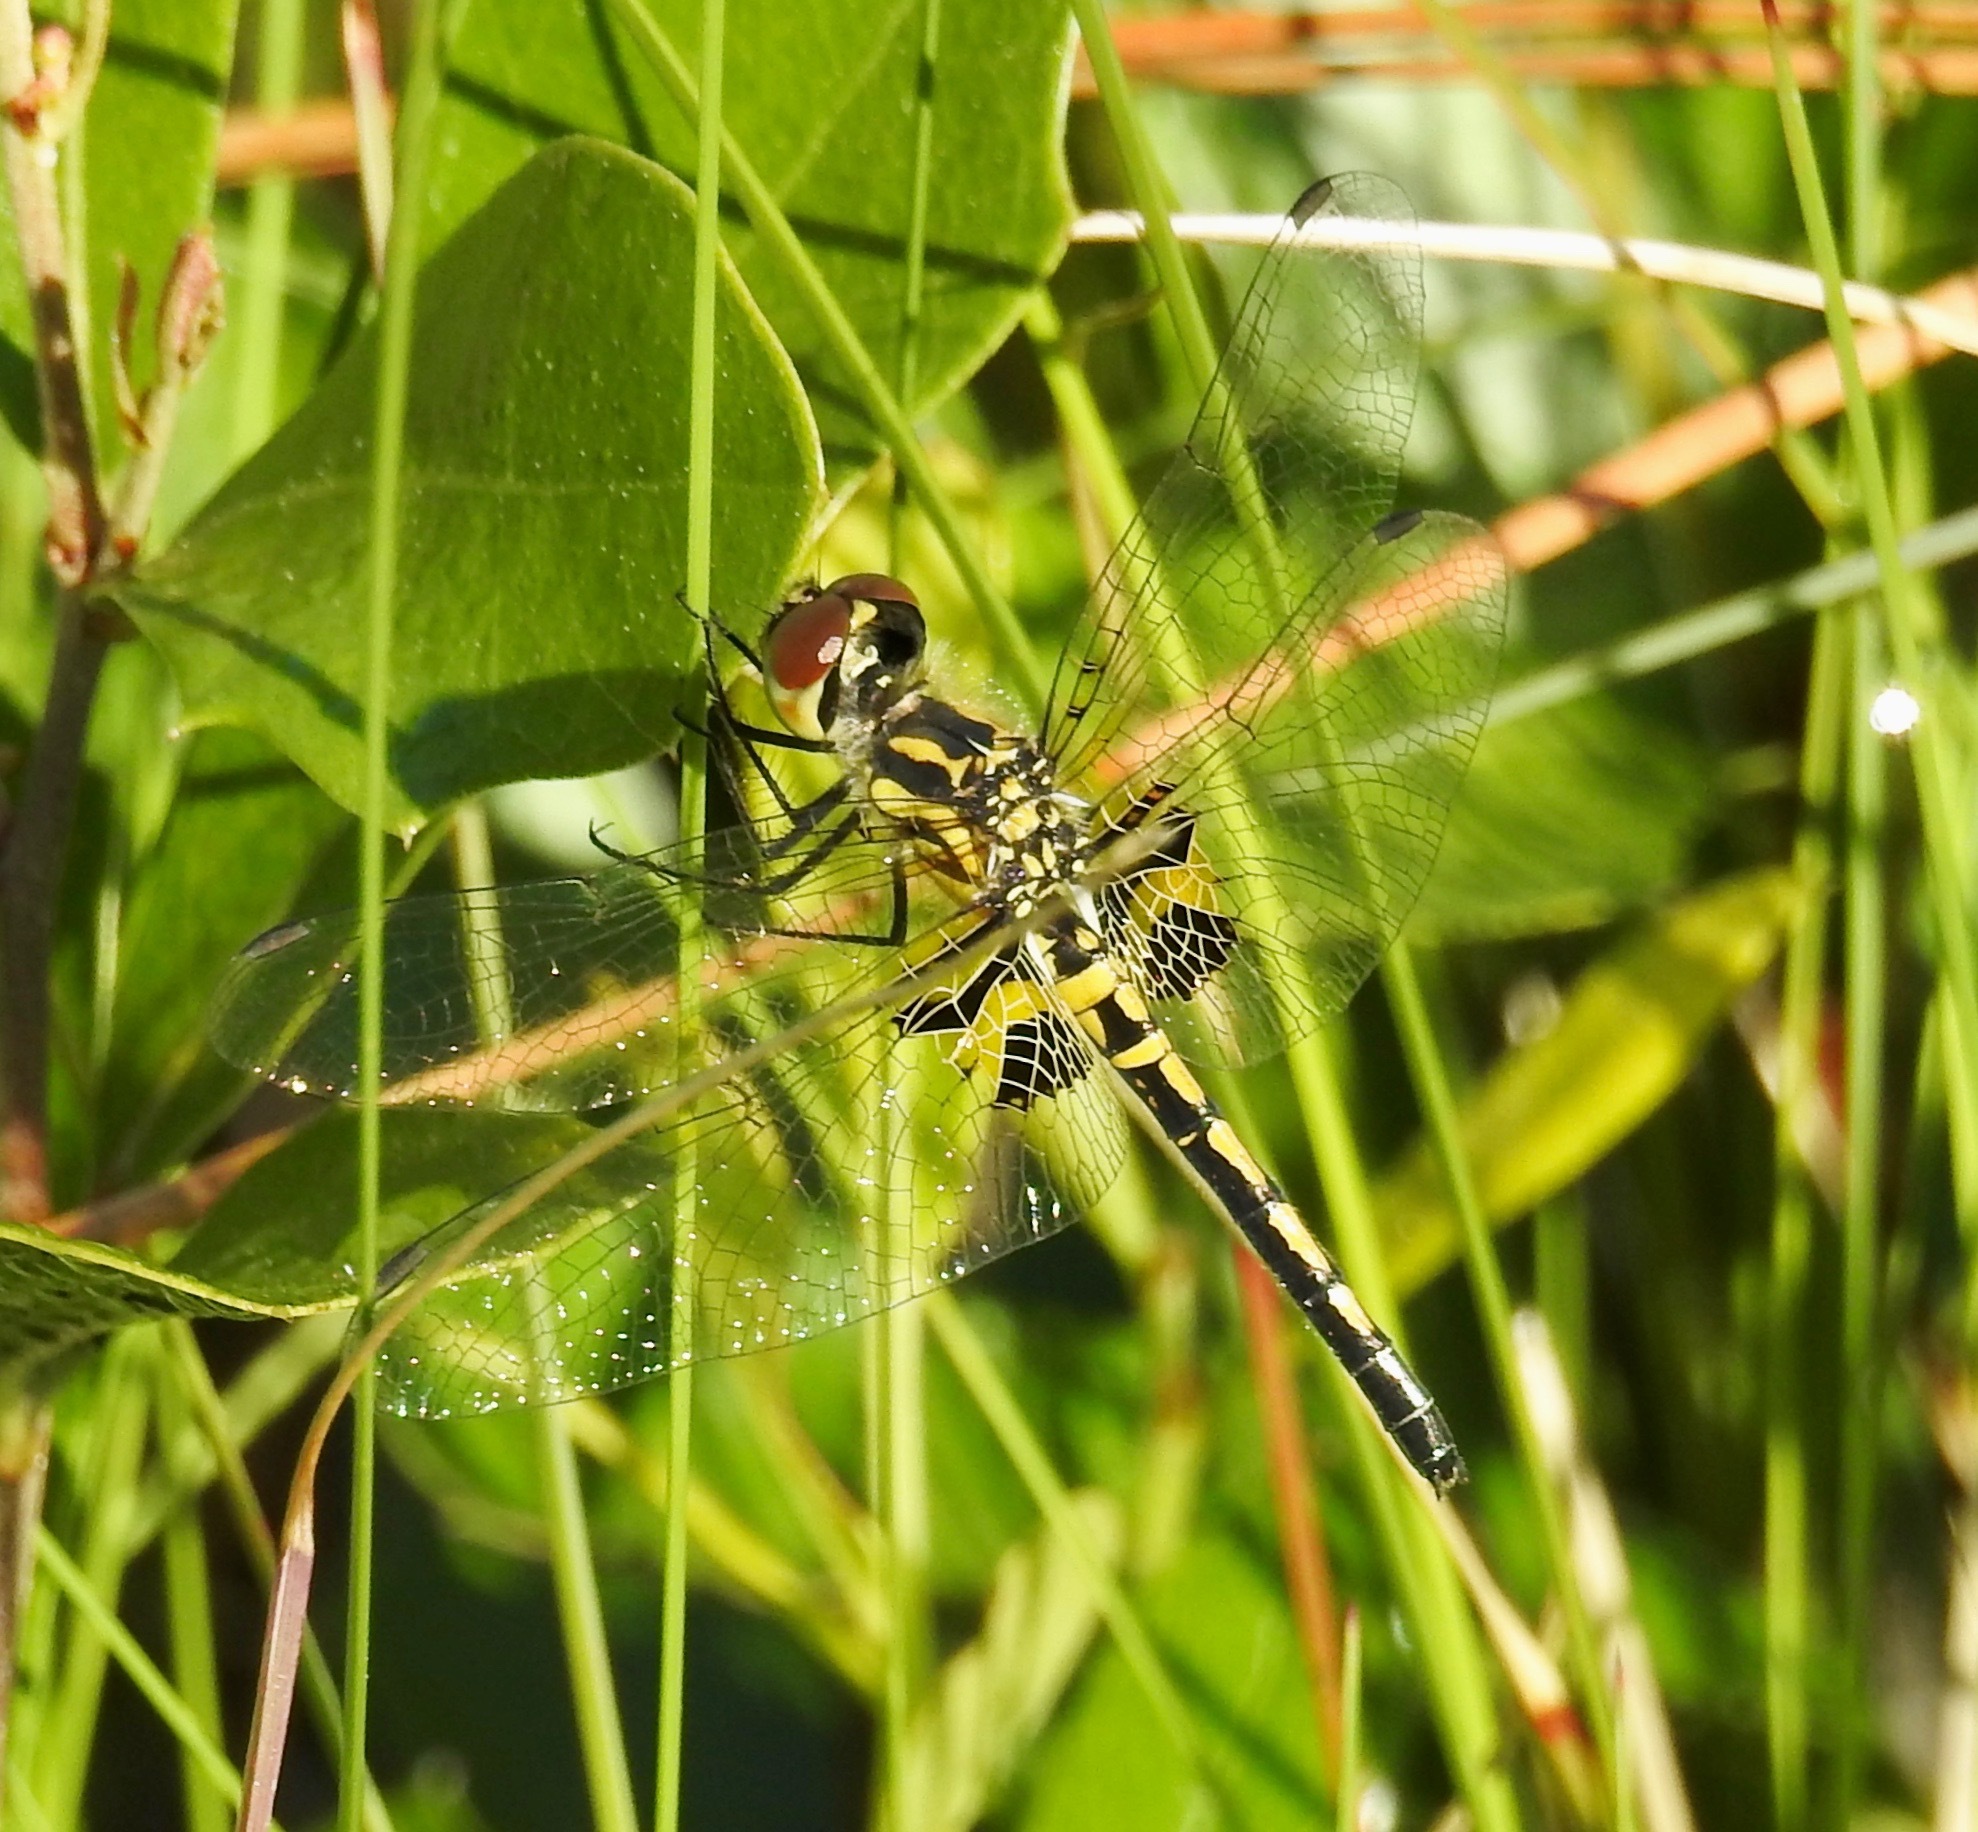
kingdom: Animalia
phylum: Arthropoda
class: Insecta
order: Odonata
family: Libellulidae
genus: Celithemis
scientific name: Celithemis ornata
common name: Ornate pennant
